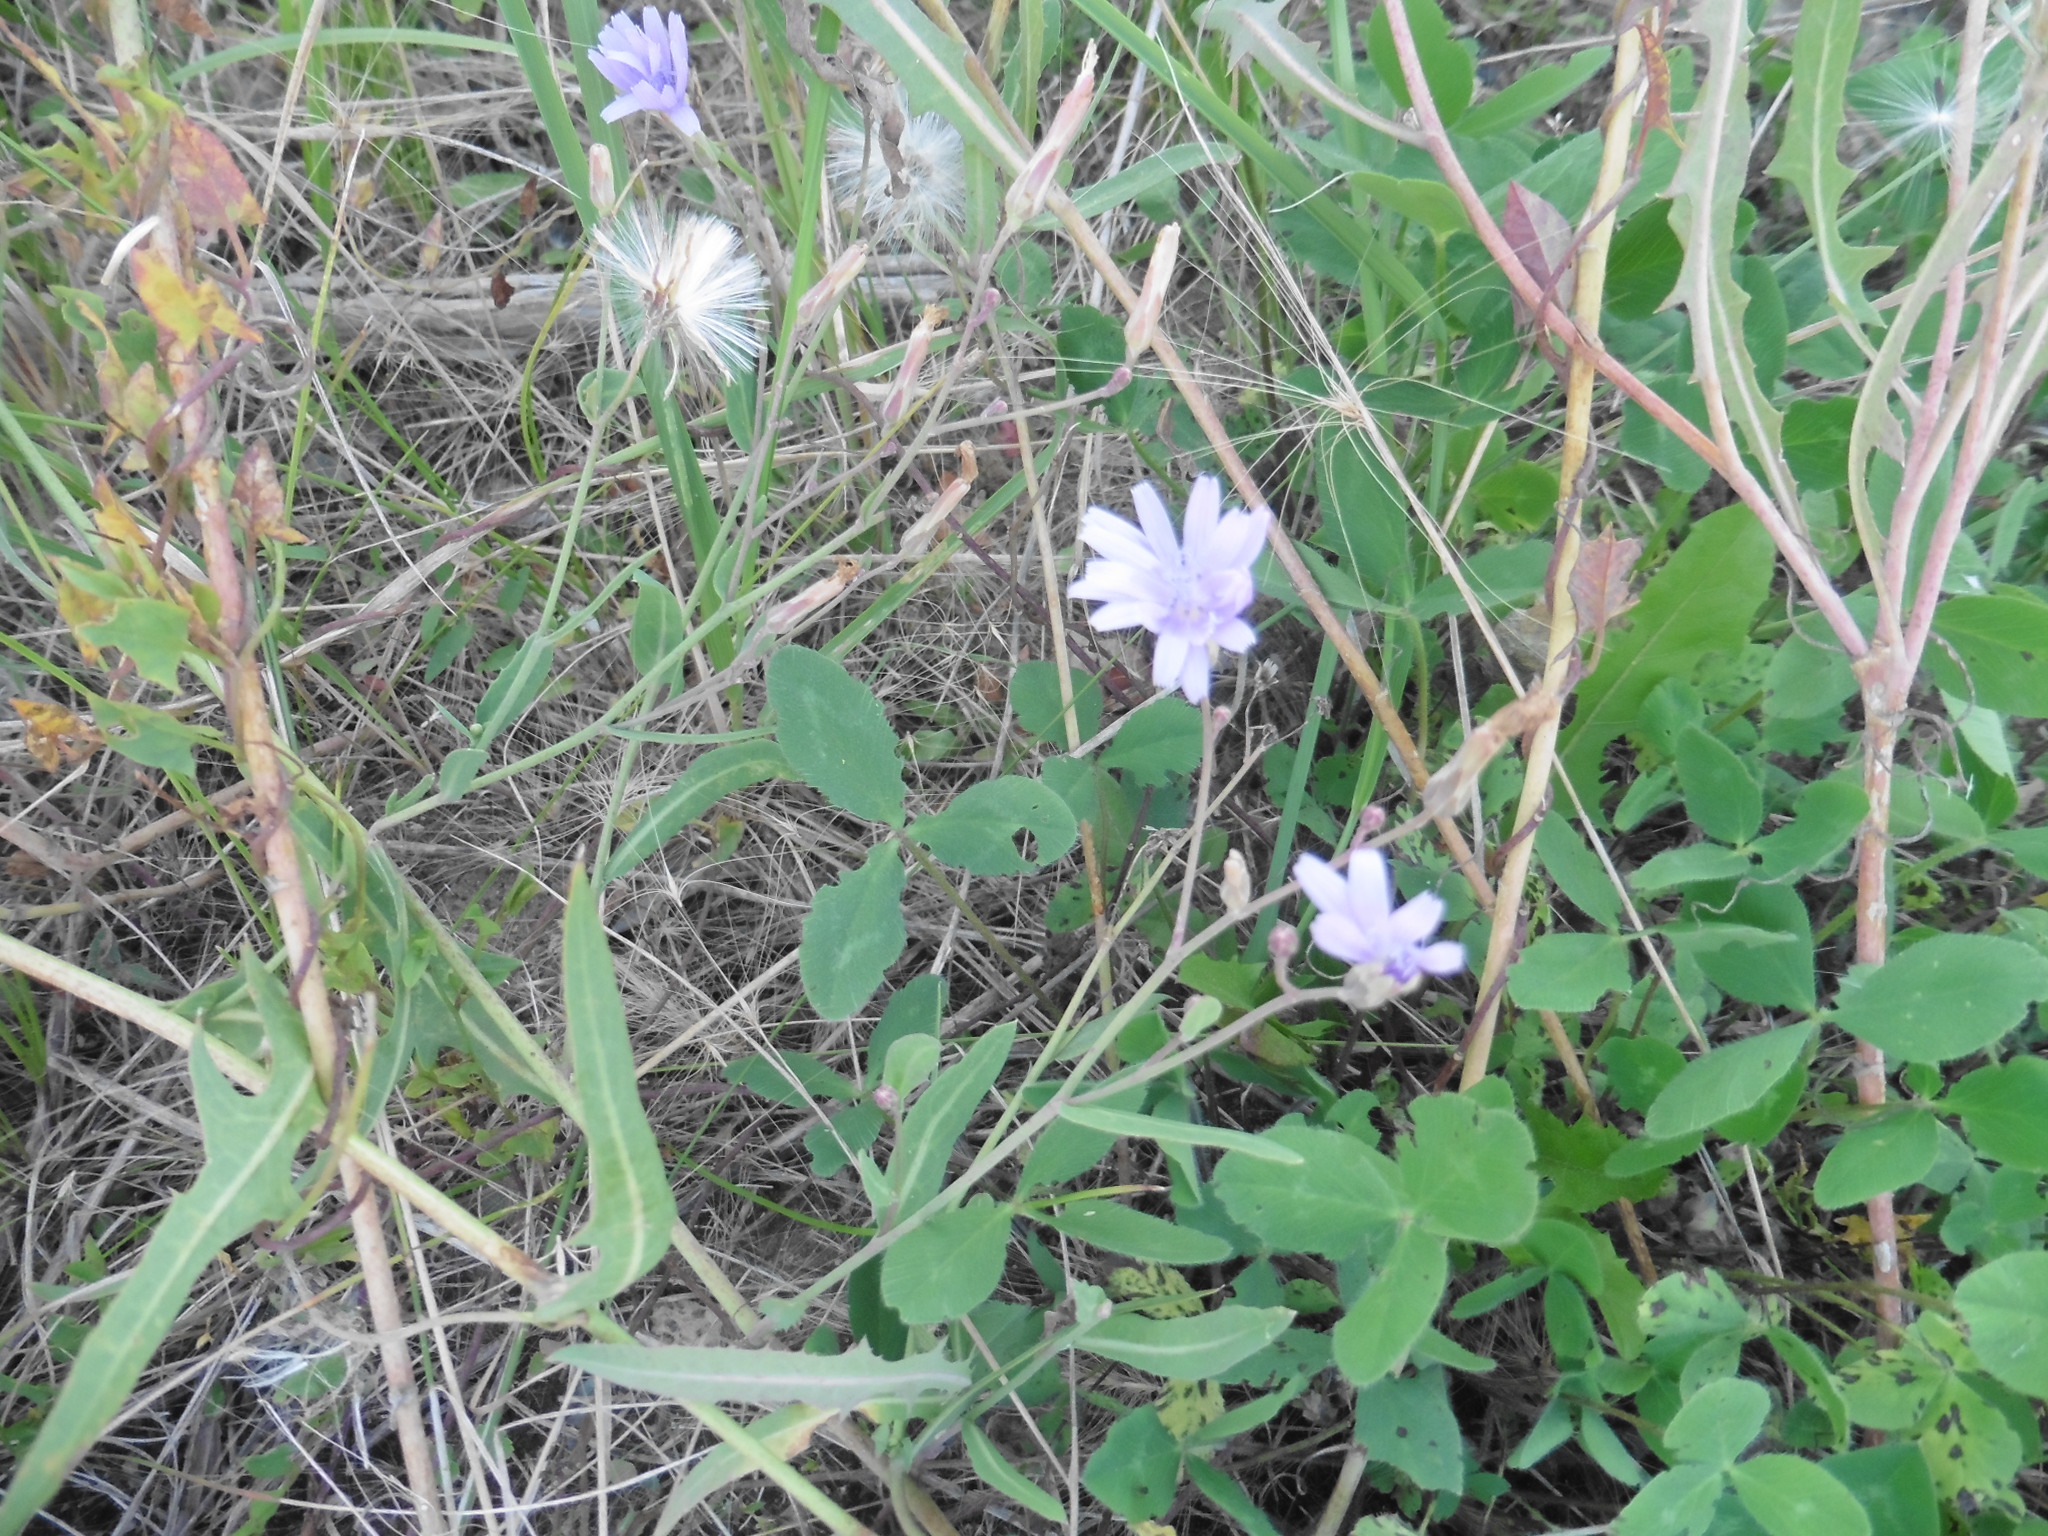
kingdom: Plantae
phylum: Tracheophyta
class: Magnoliopsida
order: Asterales
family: Asteraceae
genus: Lactuca
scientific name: Lactuca tatarica
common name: Blue lettuce
